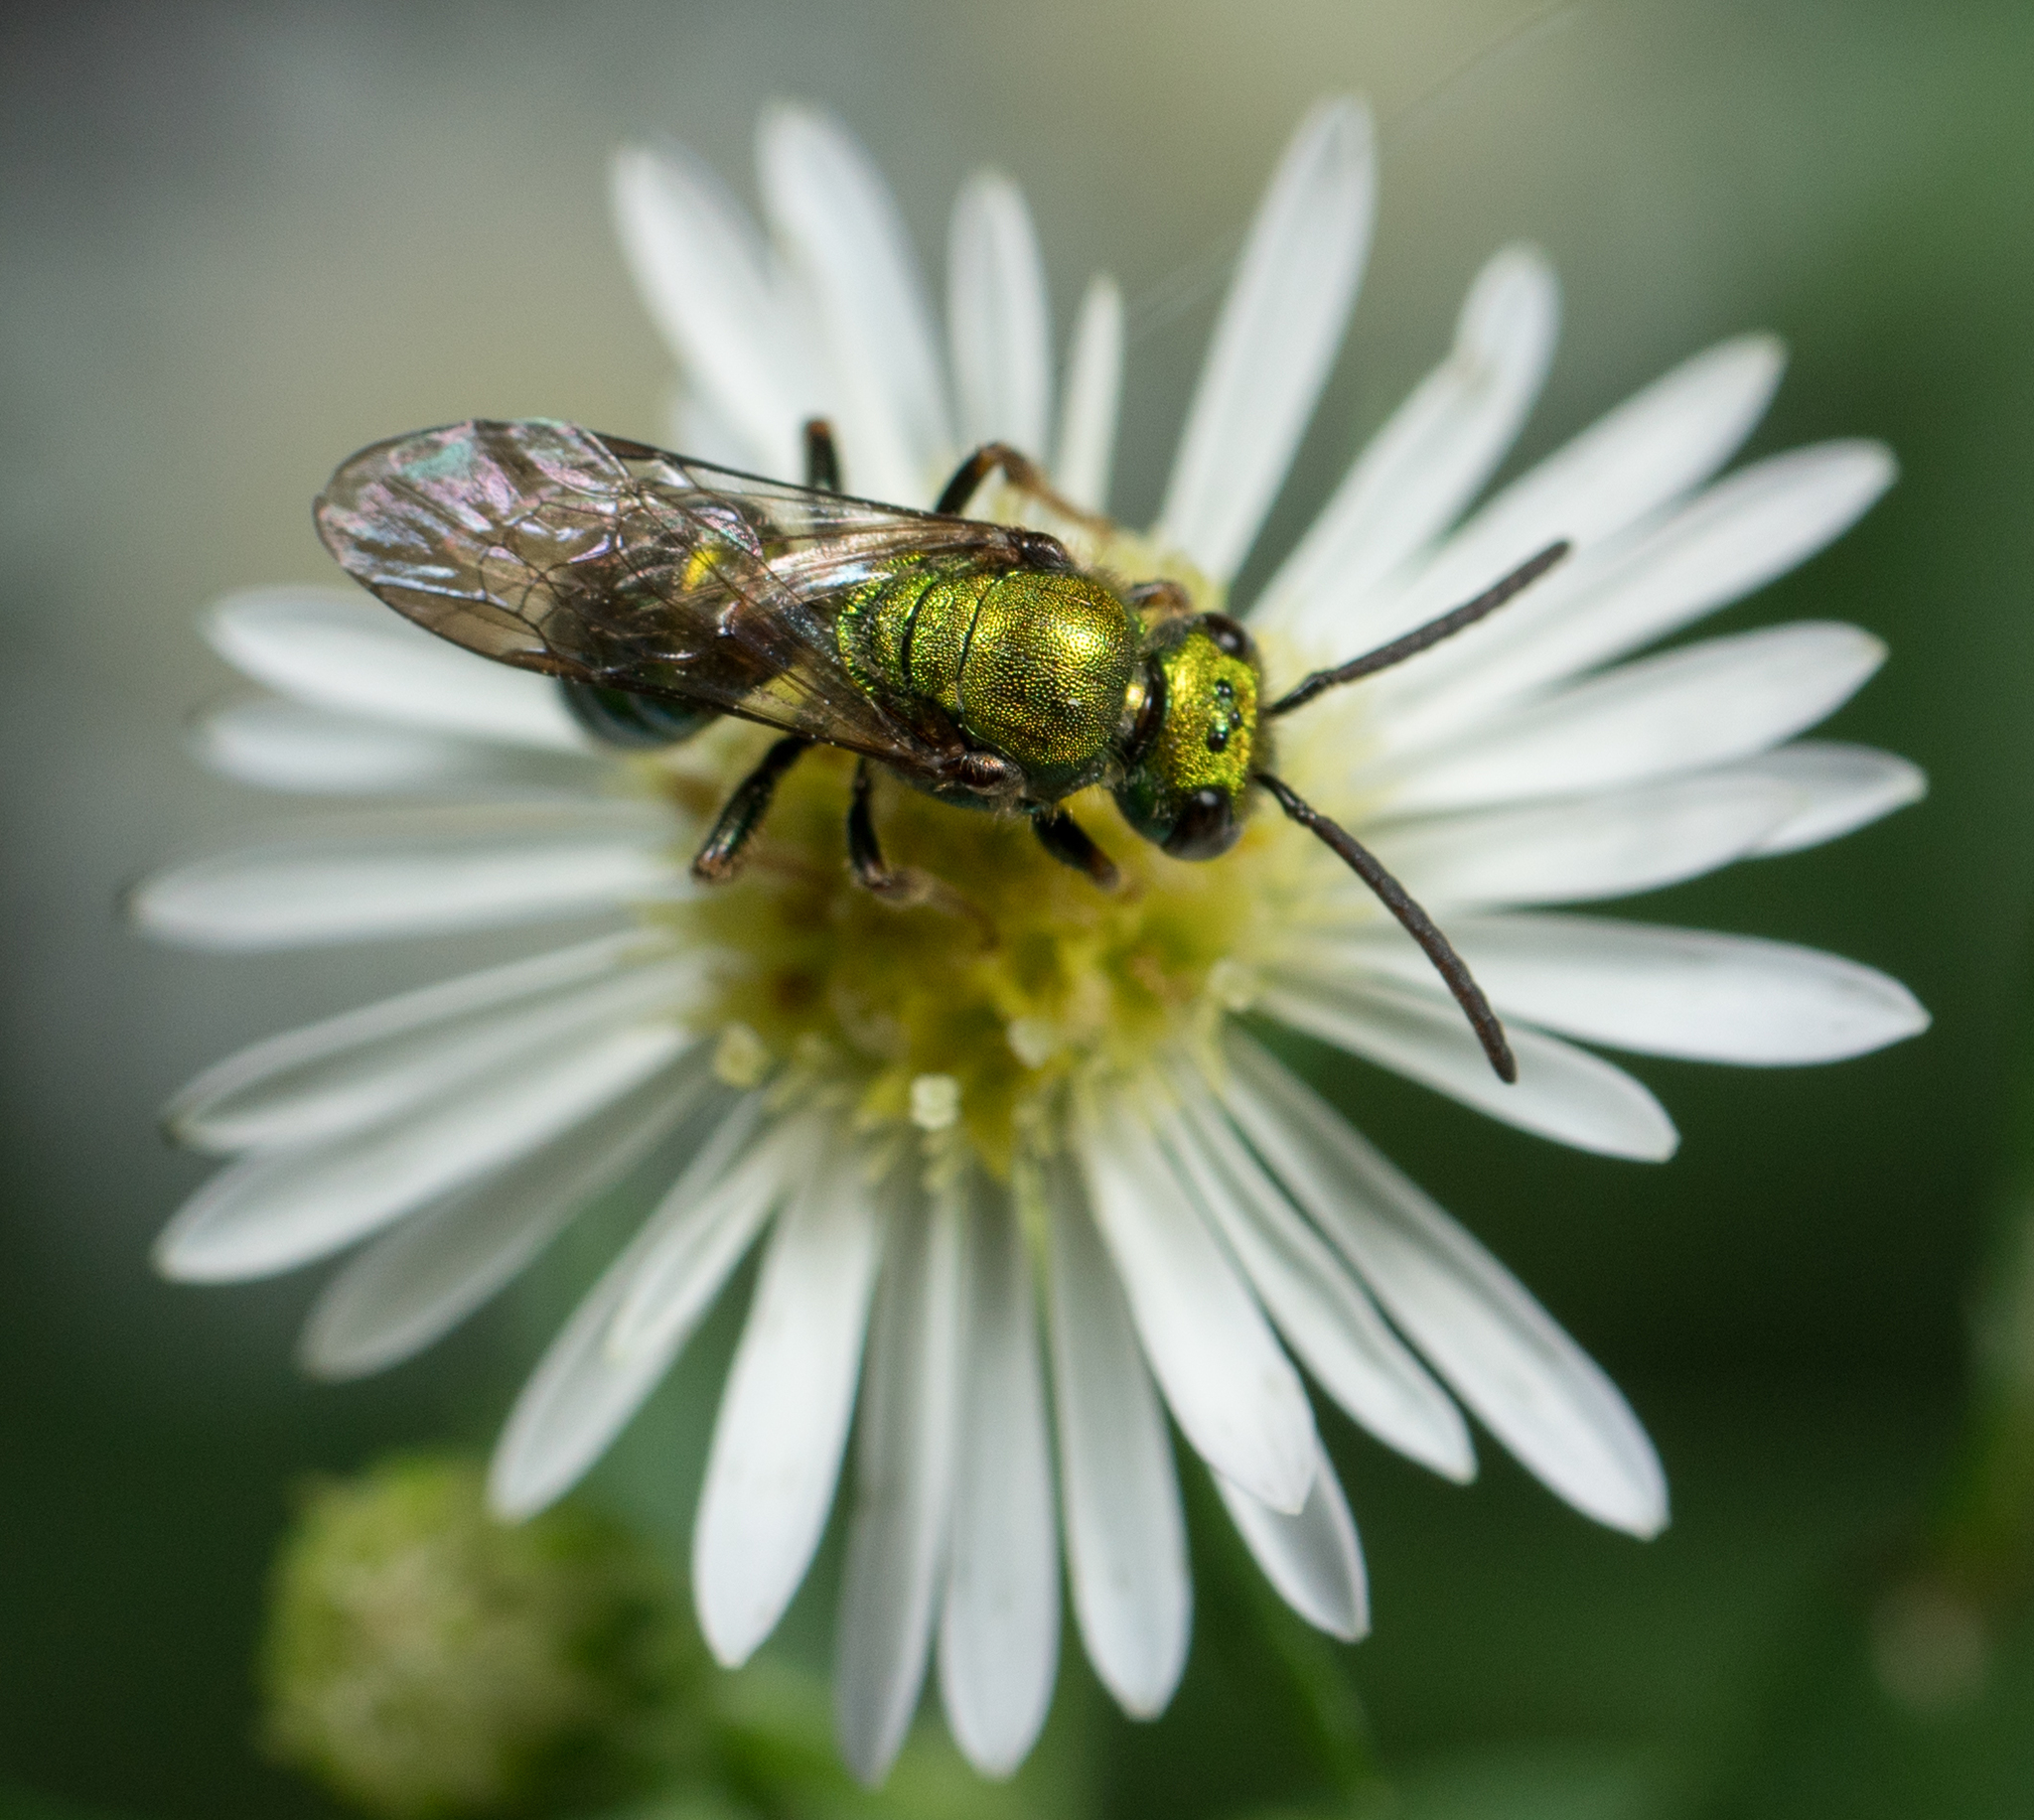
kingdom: Animalia
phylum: Arthropoda
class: Insecta
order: Hymenoptera
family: Halictidae
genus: Augochlora
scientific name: Augochlora pura
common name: Pure green sweat bee
